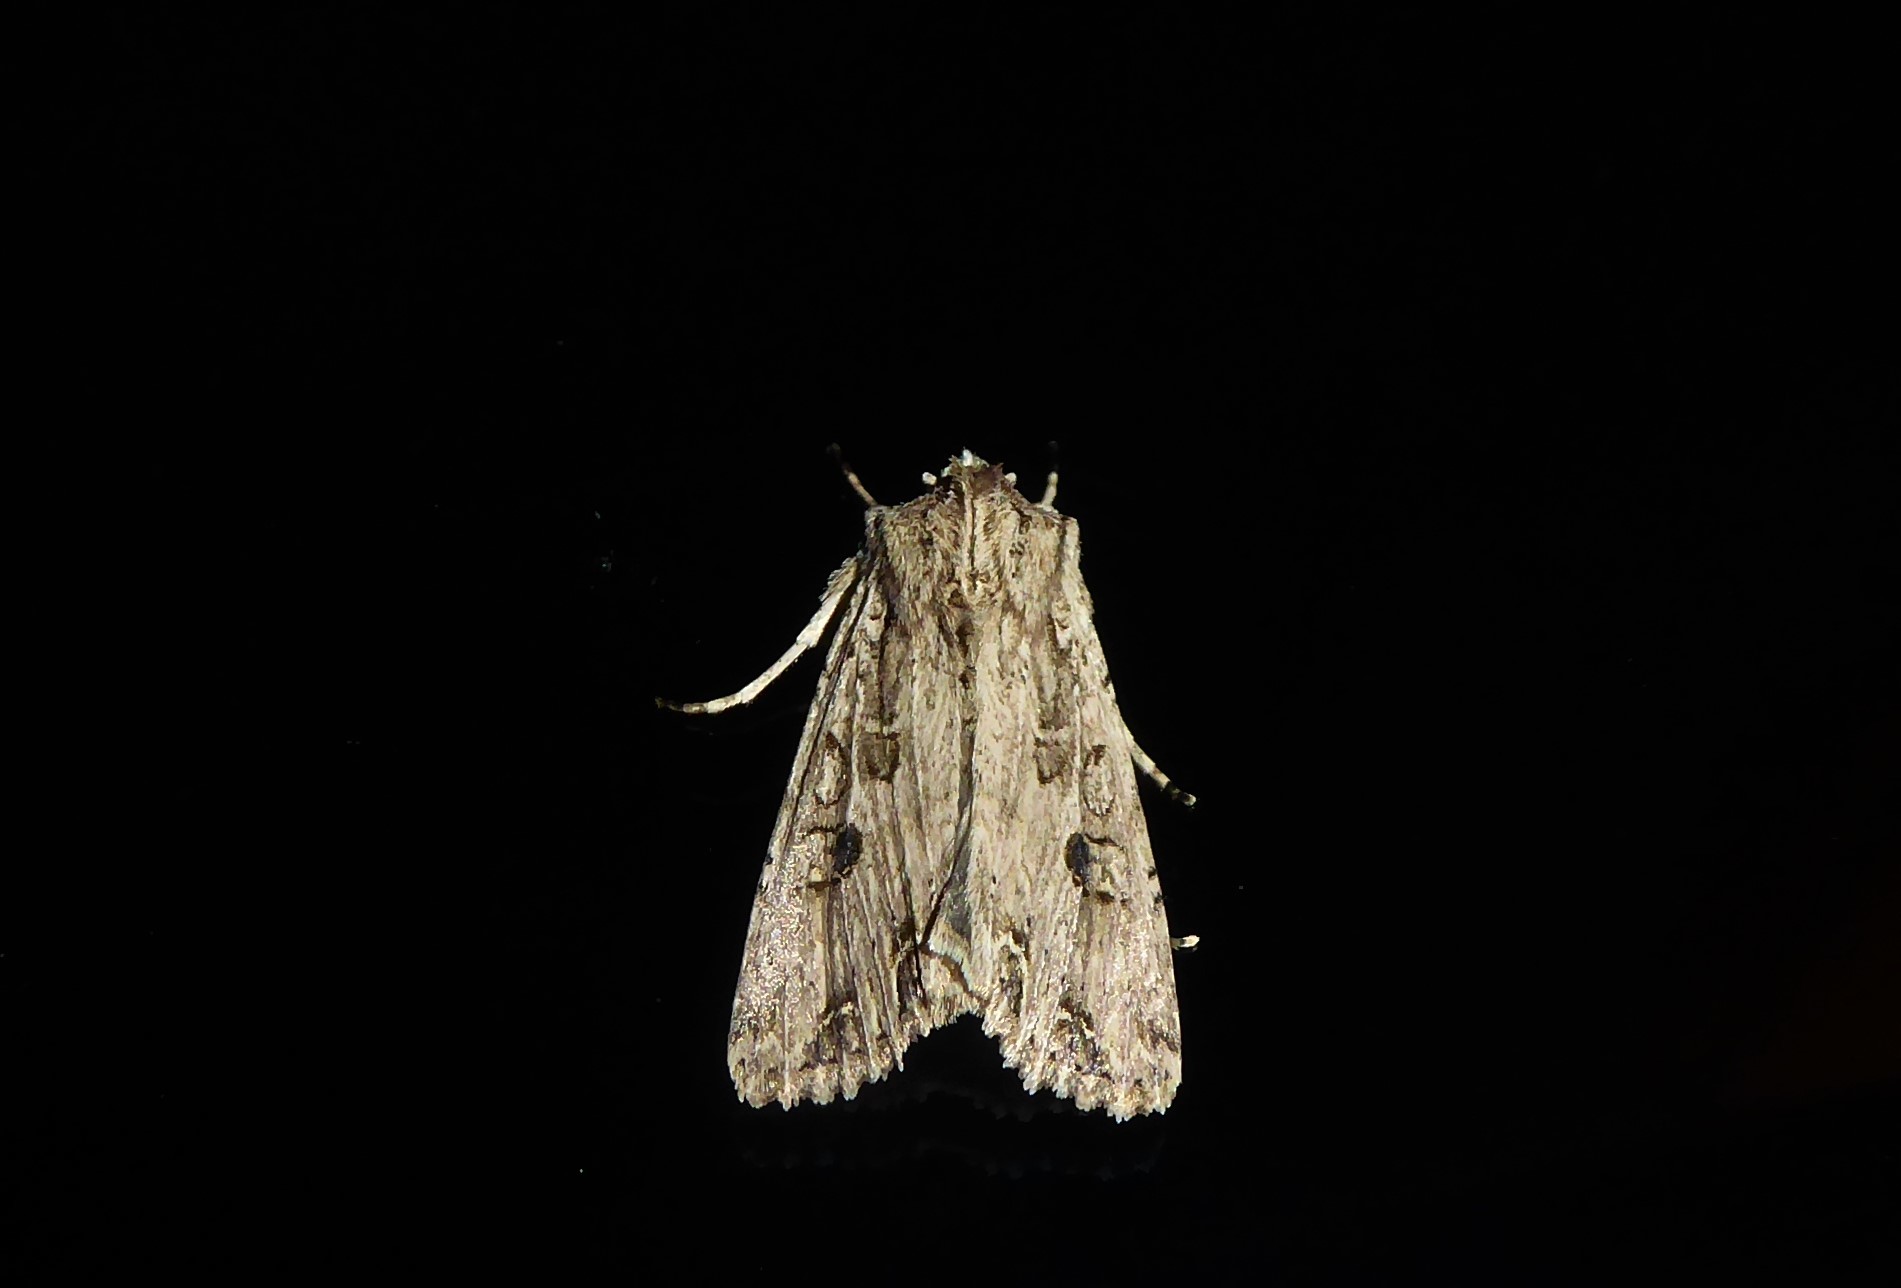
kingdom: Animalia
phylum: Arthropoda
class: Insecta
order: Lepidoptera
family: Noctuidae
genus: Ichneutica
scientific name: Ichneutica lignana
